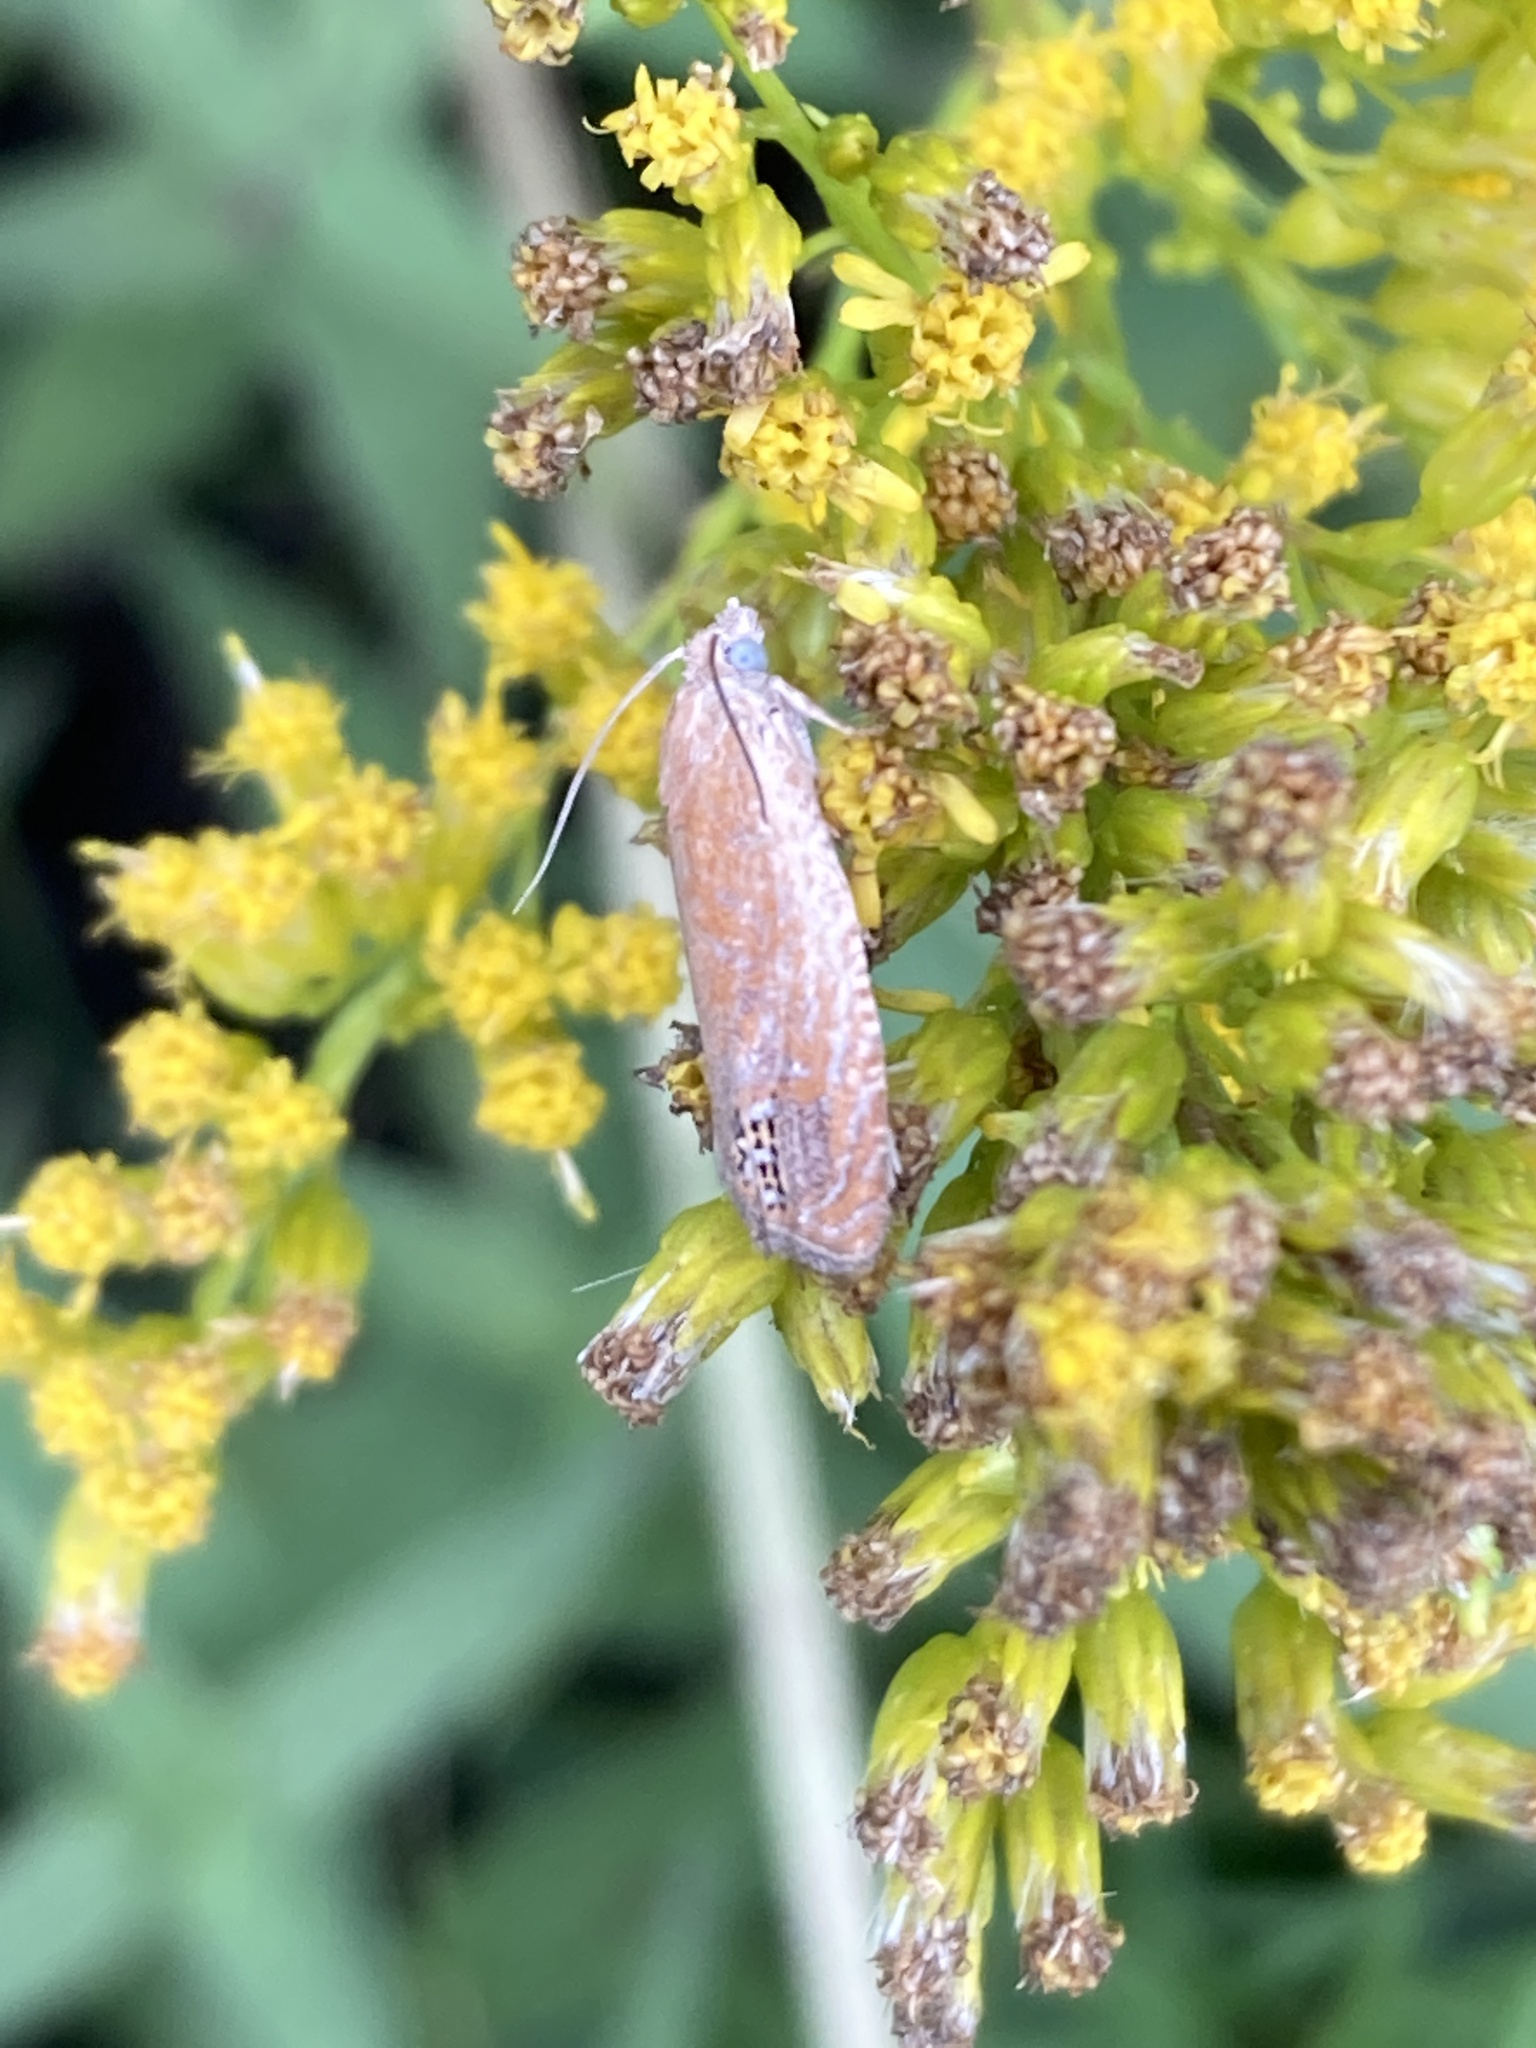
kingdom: Animalia
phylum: Arthropoda
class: Insecta
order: Lepidoptera
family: Tortricidae
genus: Eucosma
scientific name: Eucosma glomerana
